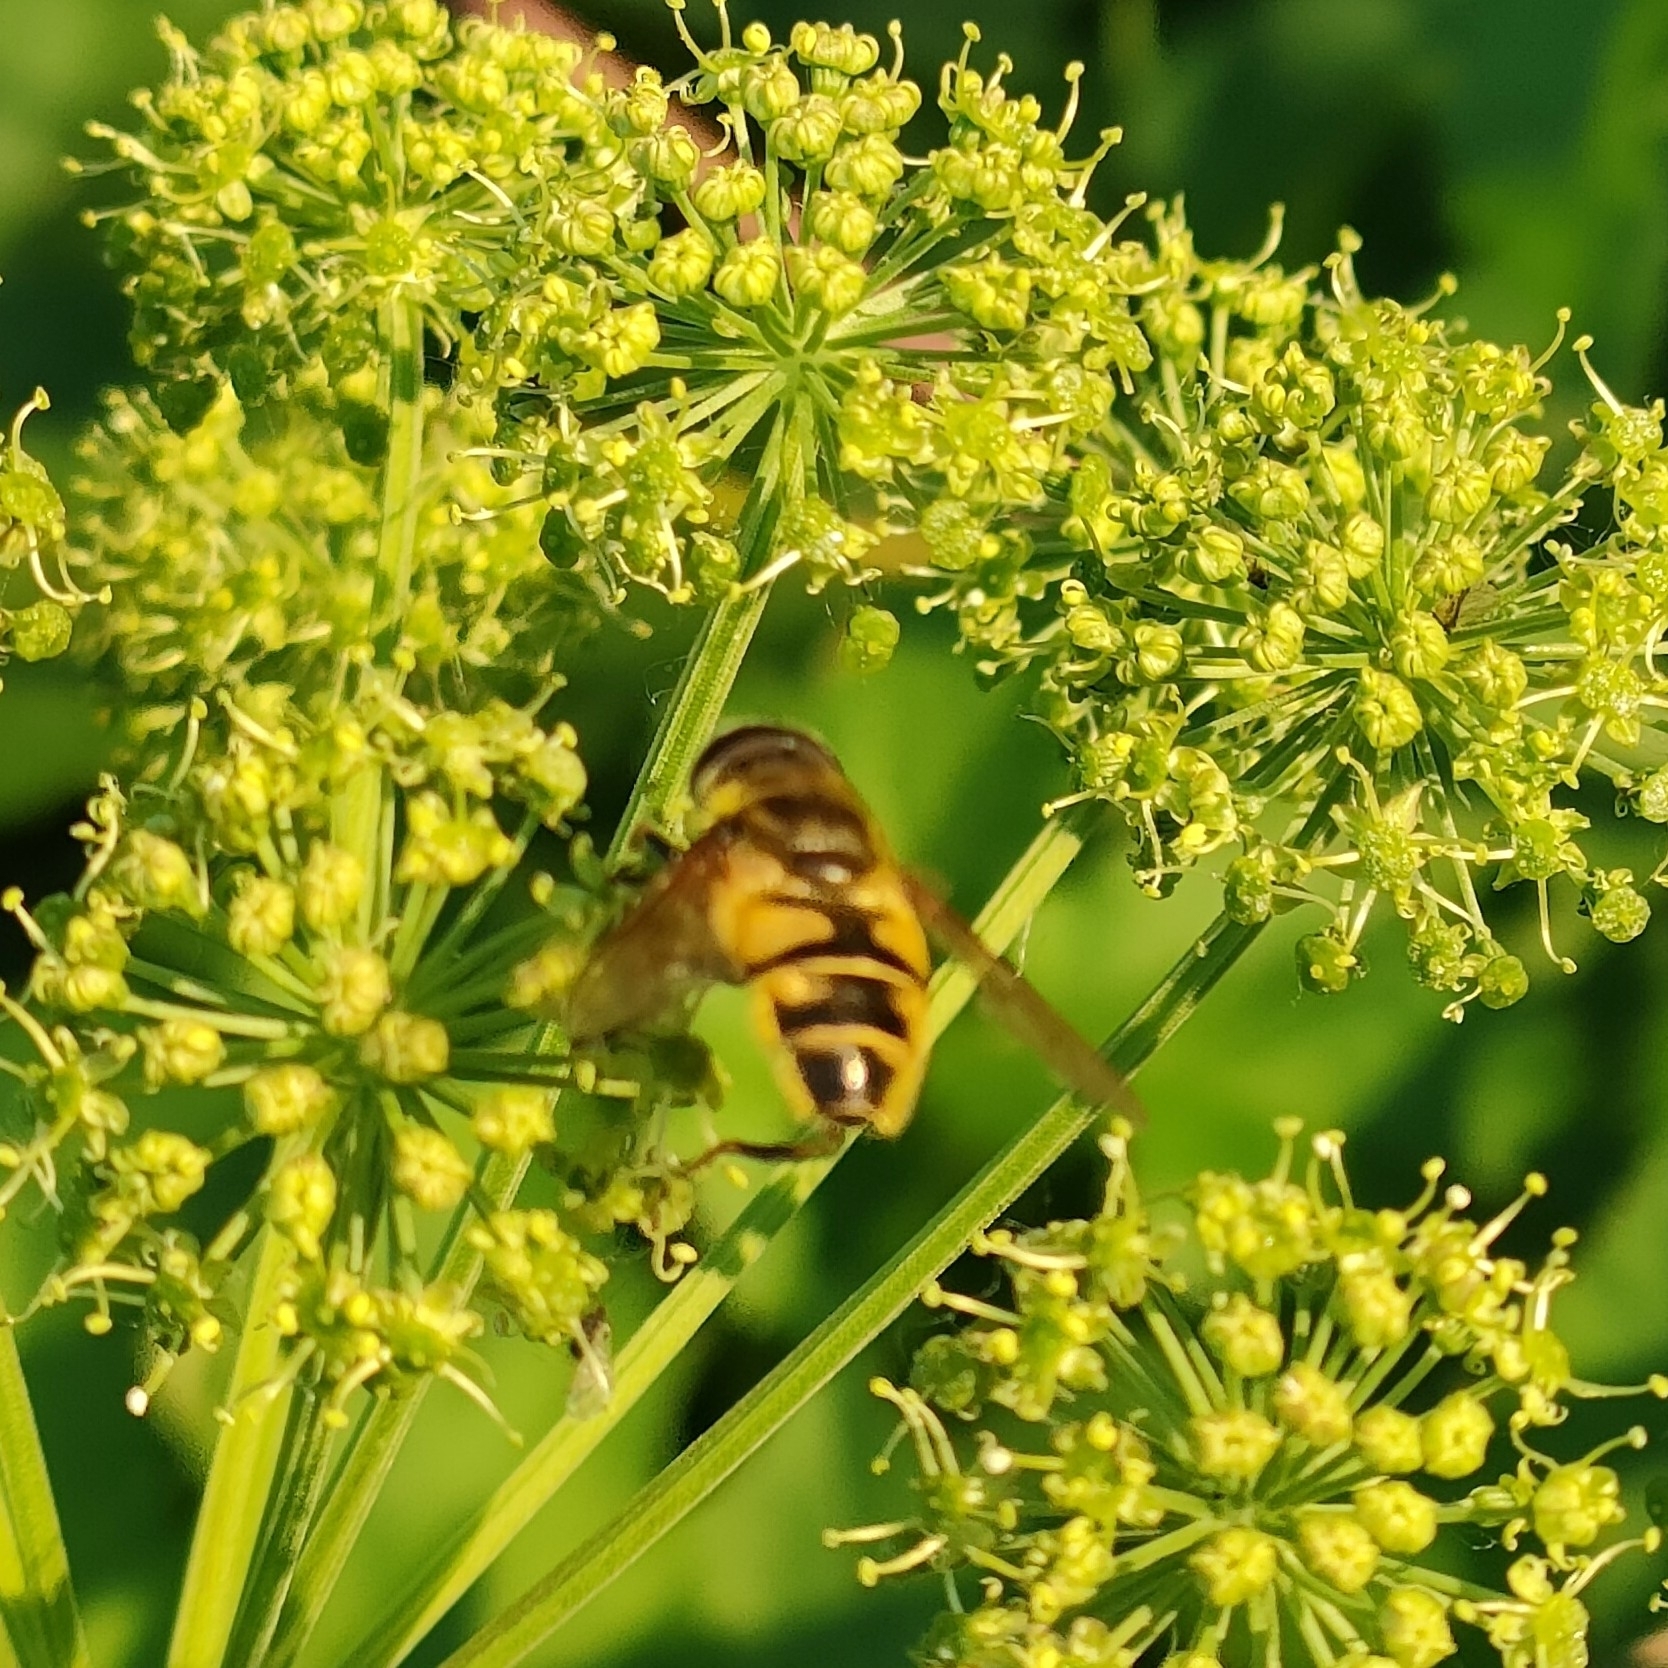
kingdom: Animalia
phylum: Arthropoda
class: Insecta
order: Diptera
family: Syrphidae
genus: Myathropa
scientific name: Myathropa florea
